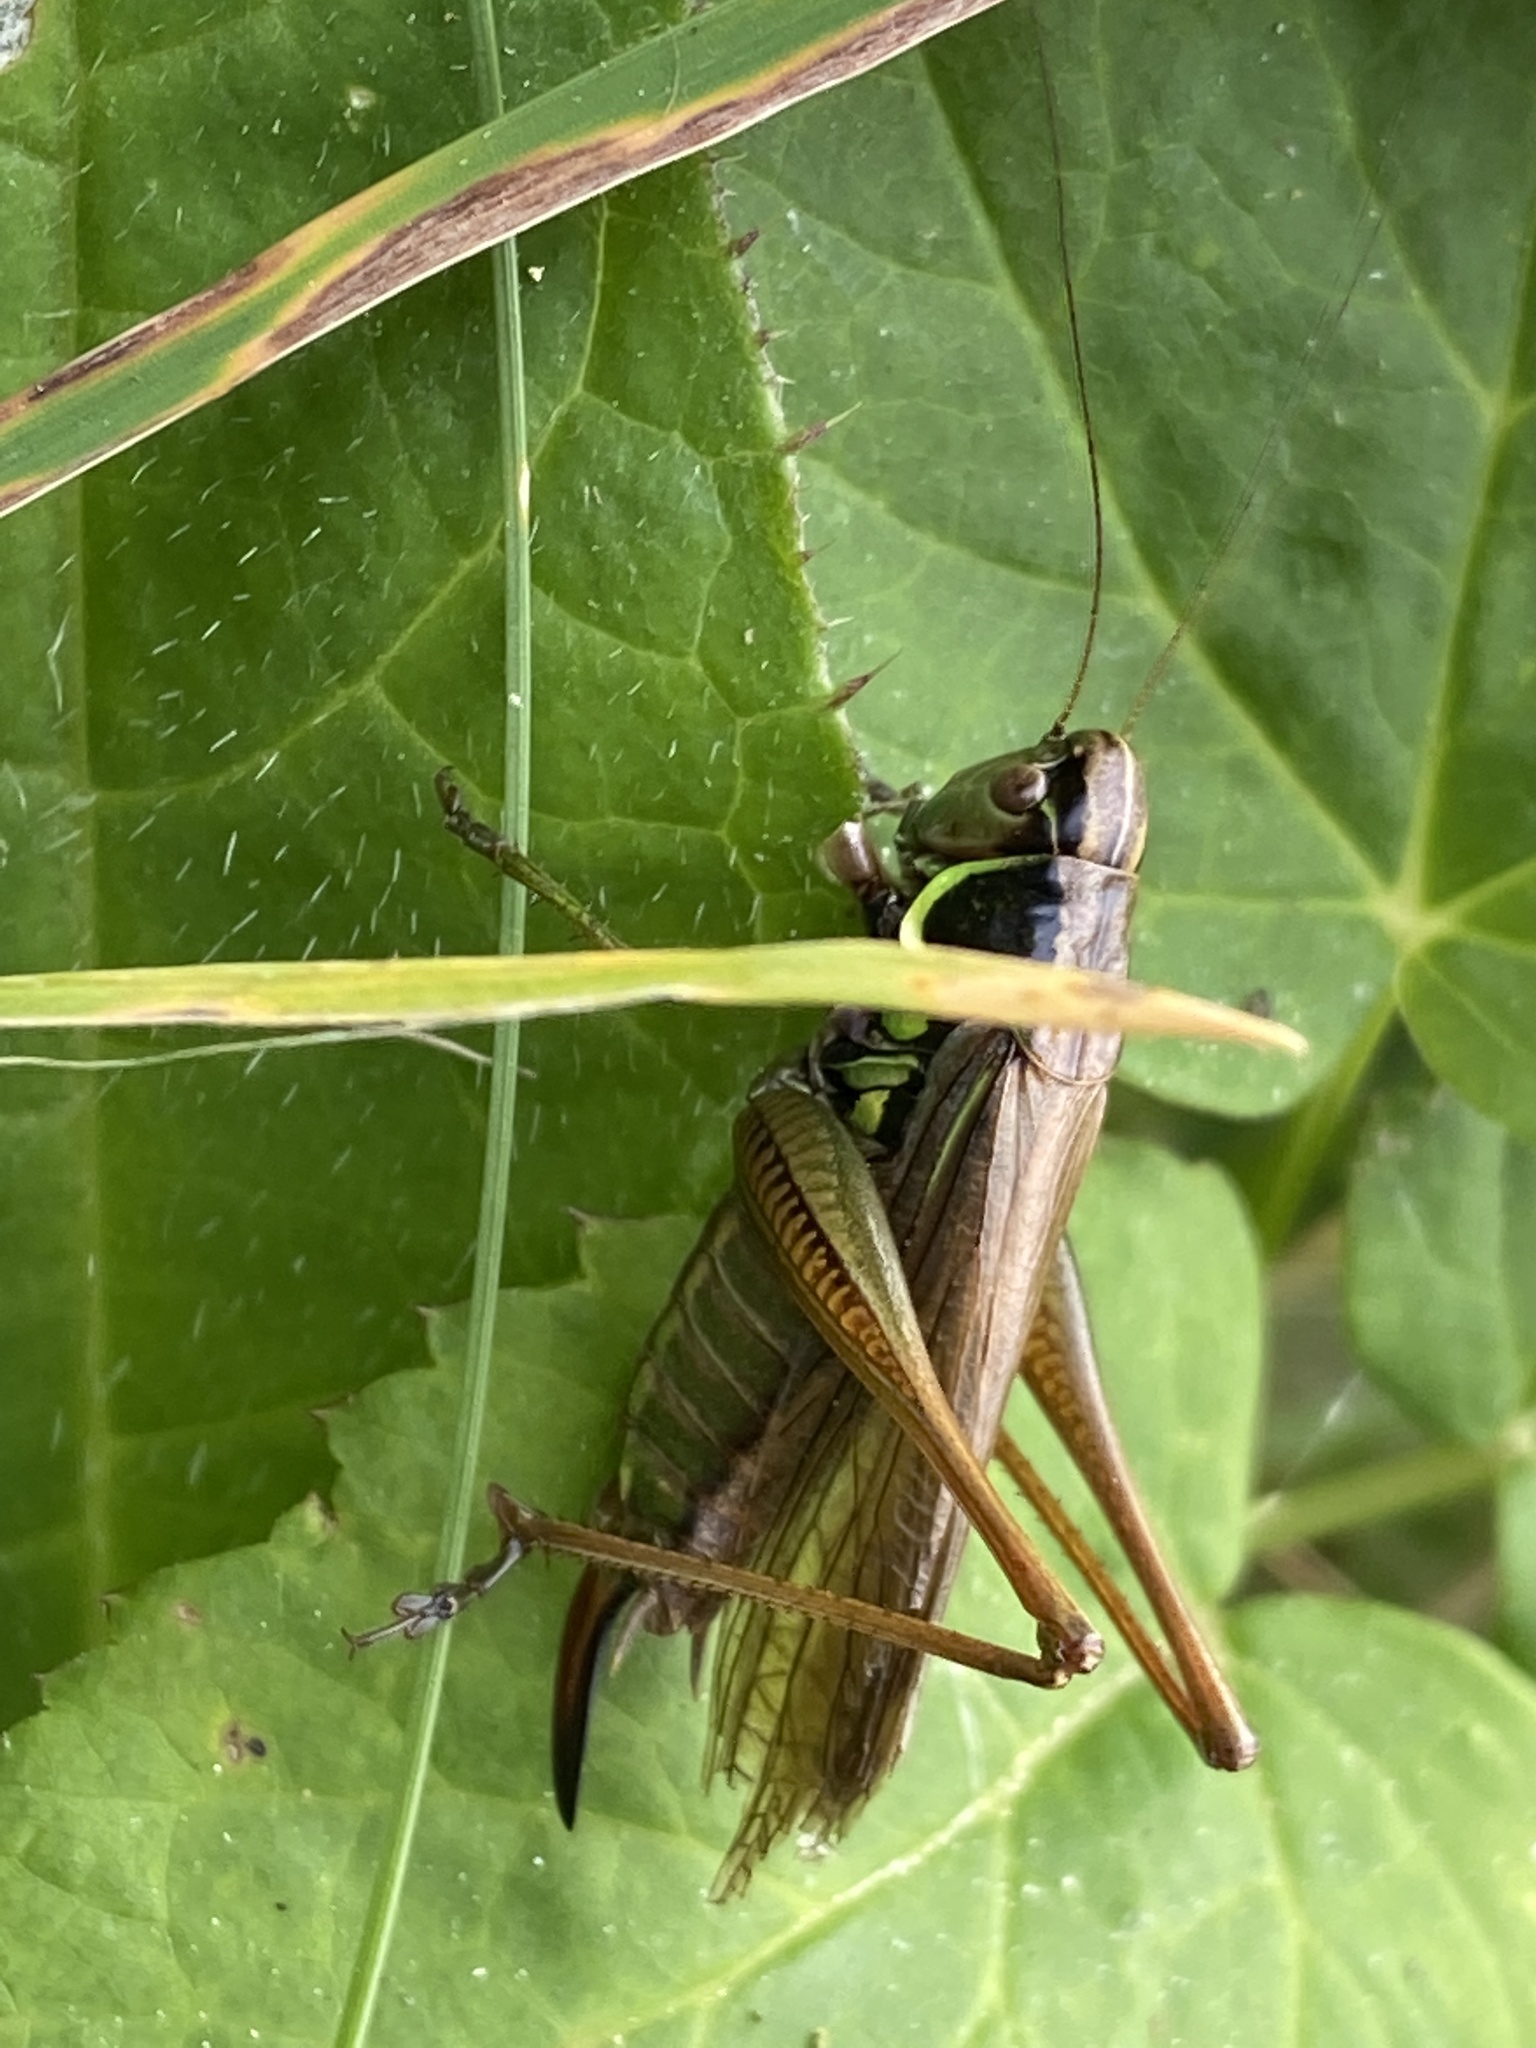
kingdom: Animalia
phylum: Arthropoda
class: Insecta
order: Orthoptera
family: Tettigoniidae
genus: Roeseliana
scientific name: Roeseliana roeselii
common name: Roesel's bush cricket
